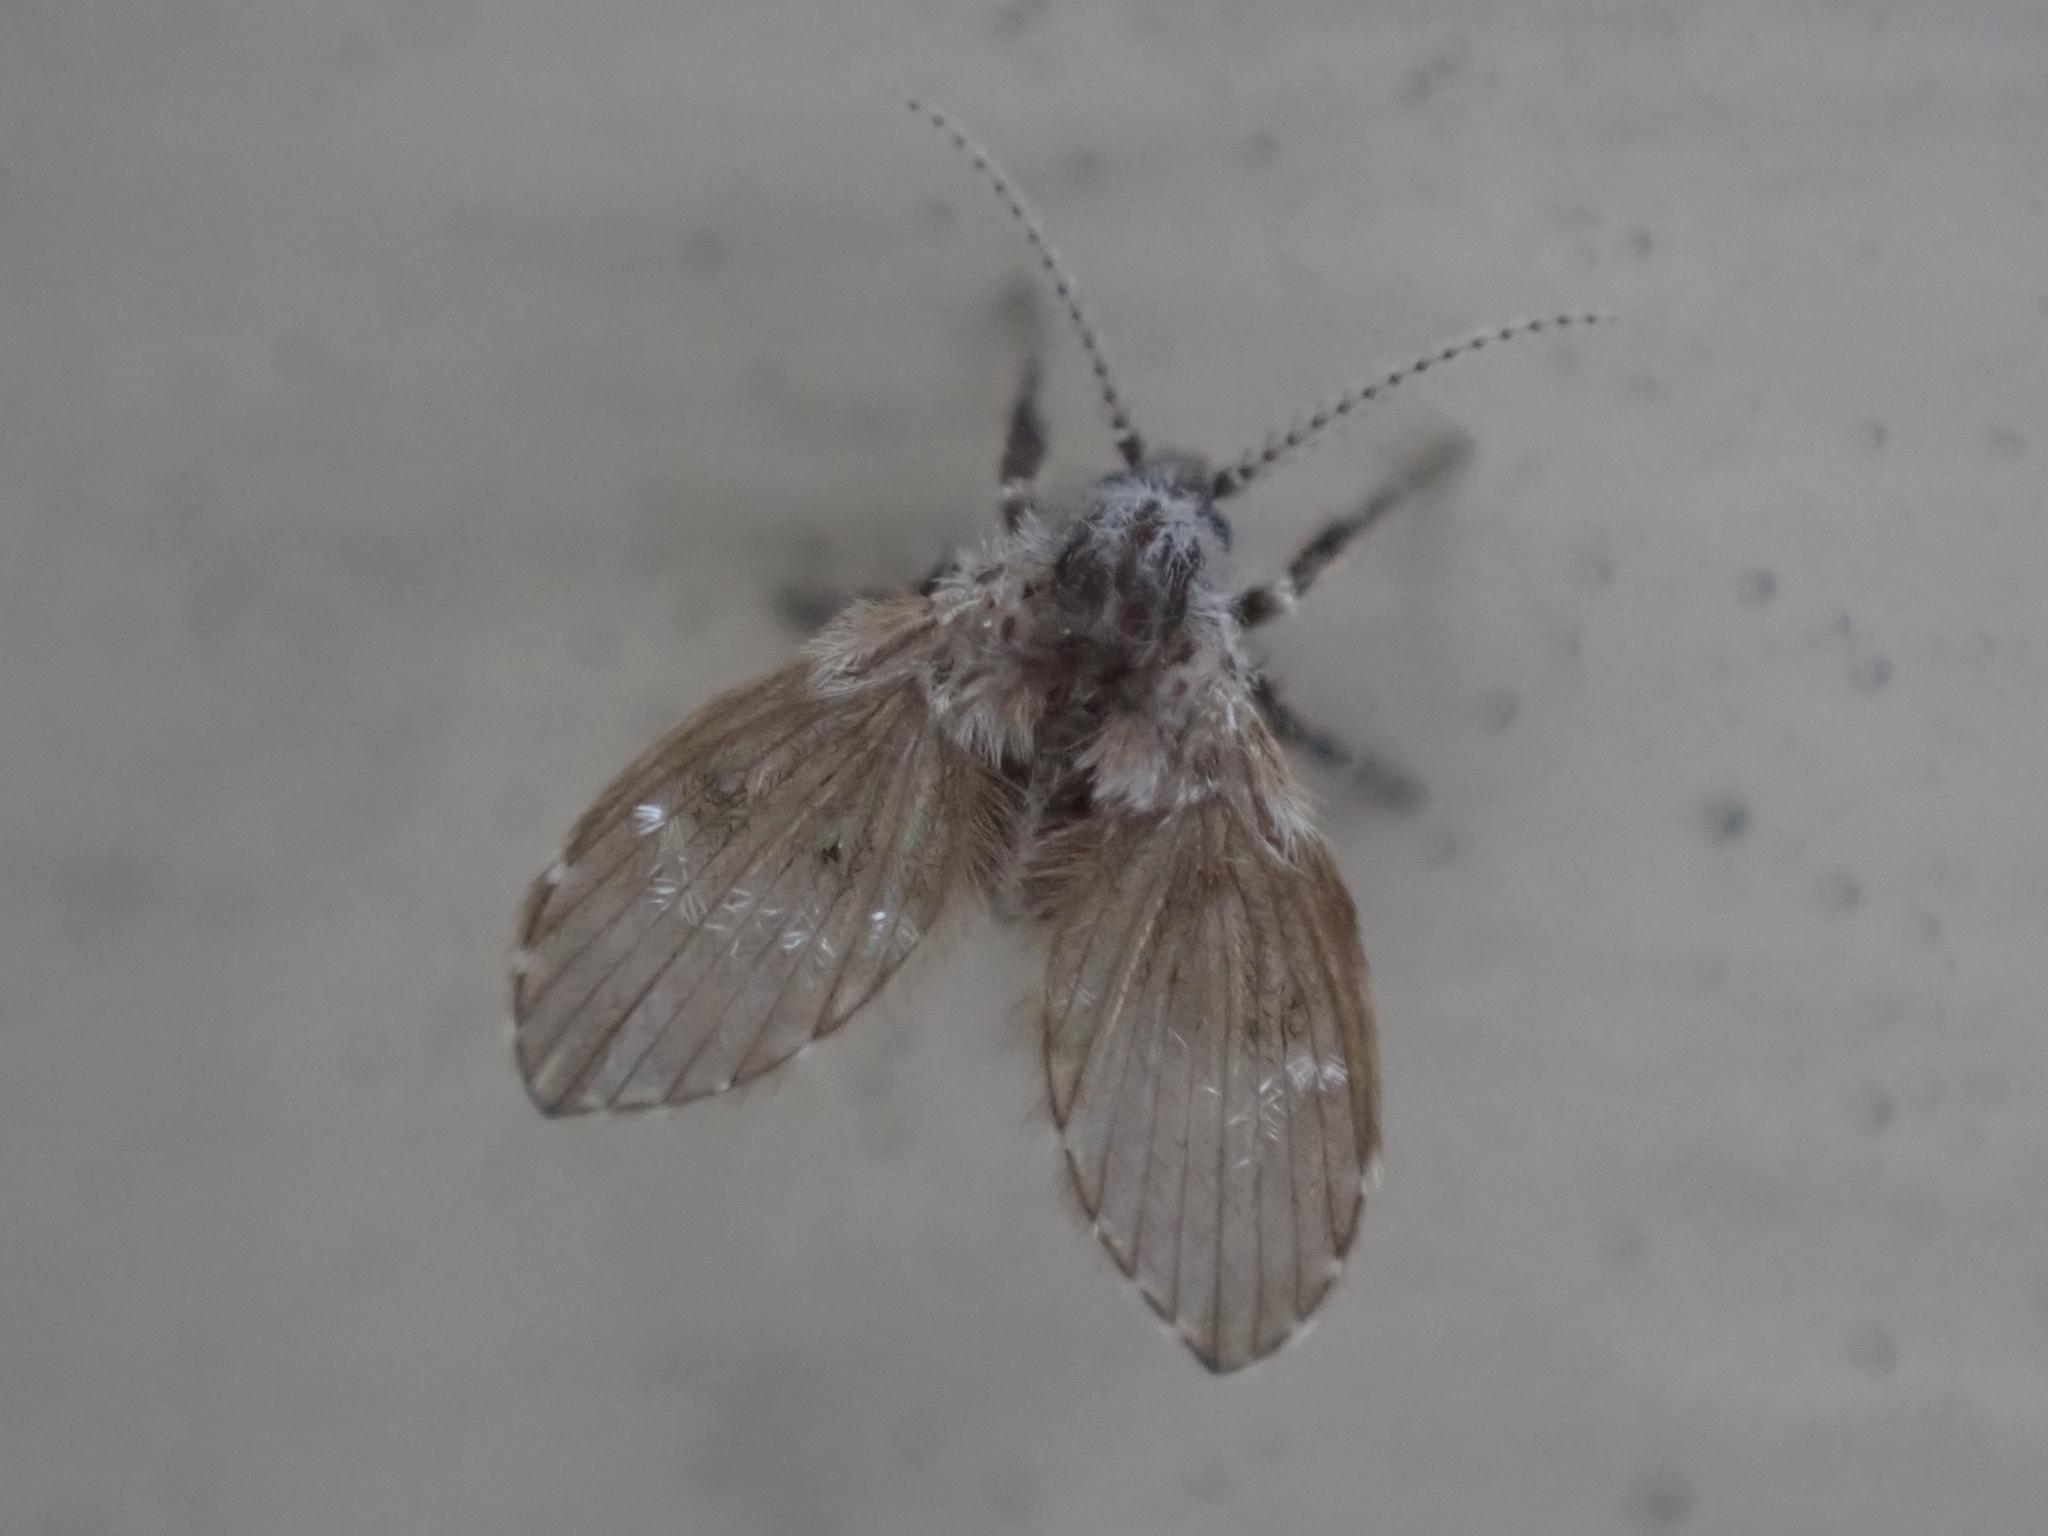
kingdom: Animalia
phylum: Arthropoda
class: Insecta
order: Diptera
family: Psychodidae
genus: Clogmia
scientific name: Clogmia albipunctatus
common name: White-spotted moth fly
